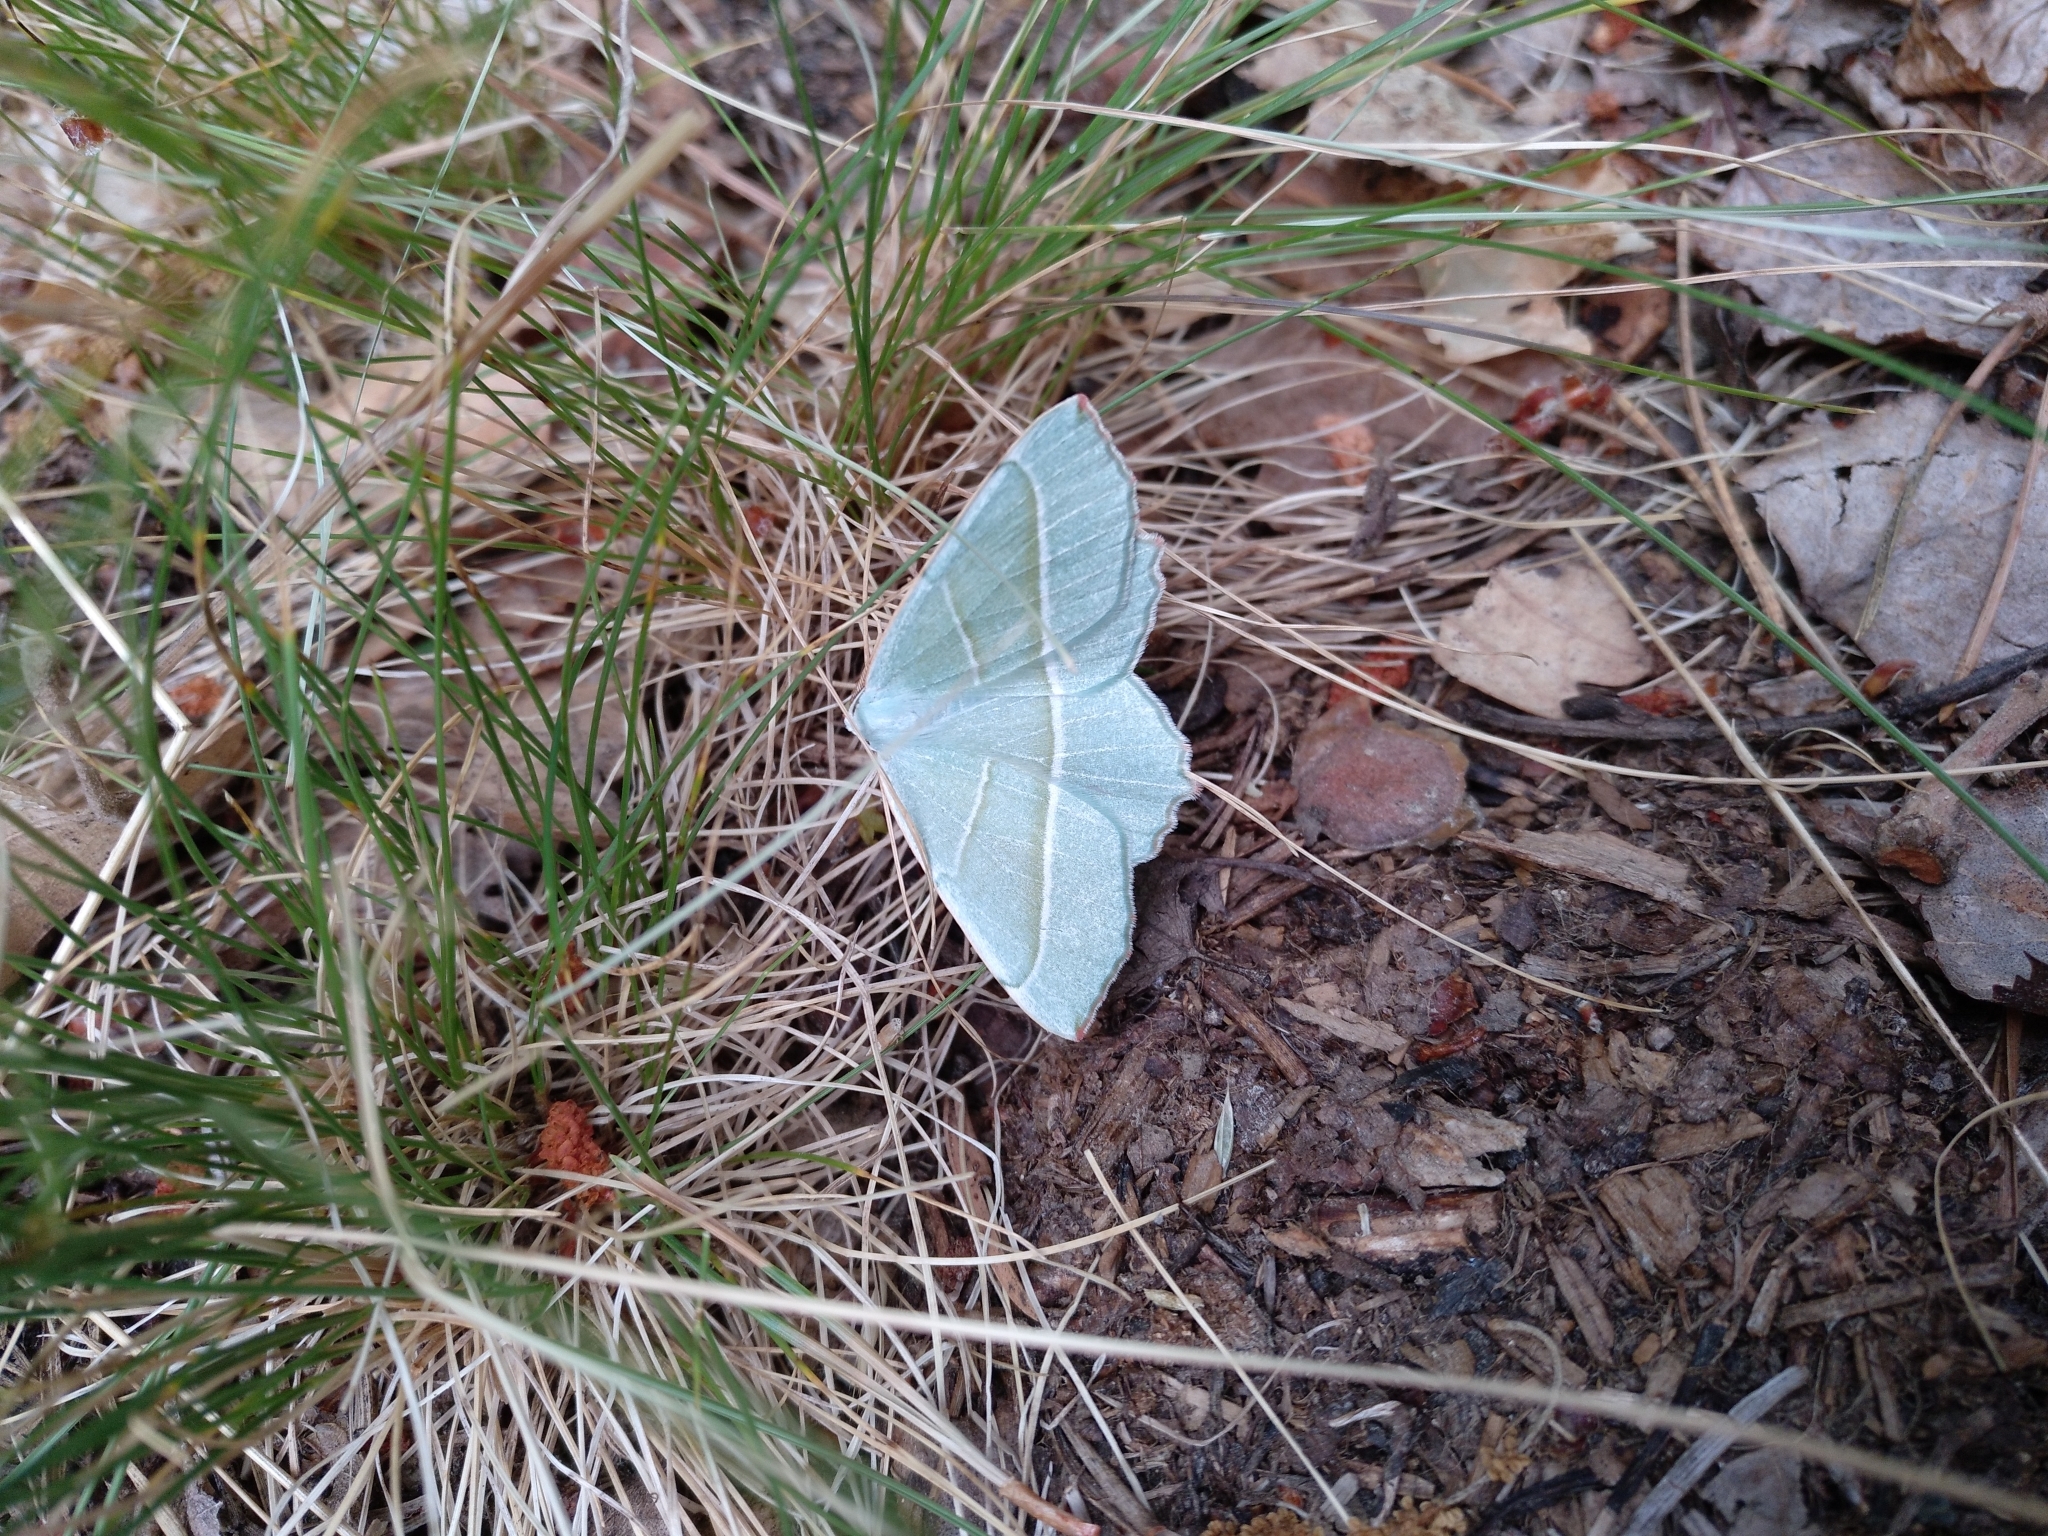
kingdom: Animalia
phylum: Arthropoda
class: Insecta
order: Lepidoptera
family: Geometridae
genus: Campaea
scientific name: Campaea margaritaria
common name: Light emerald
